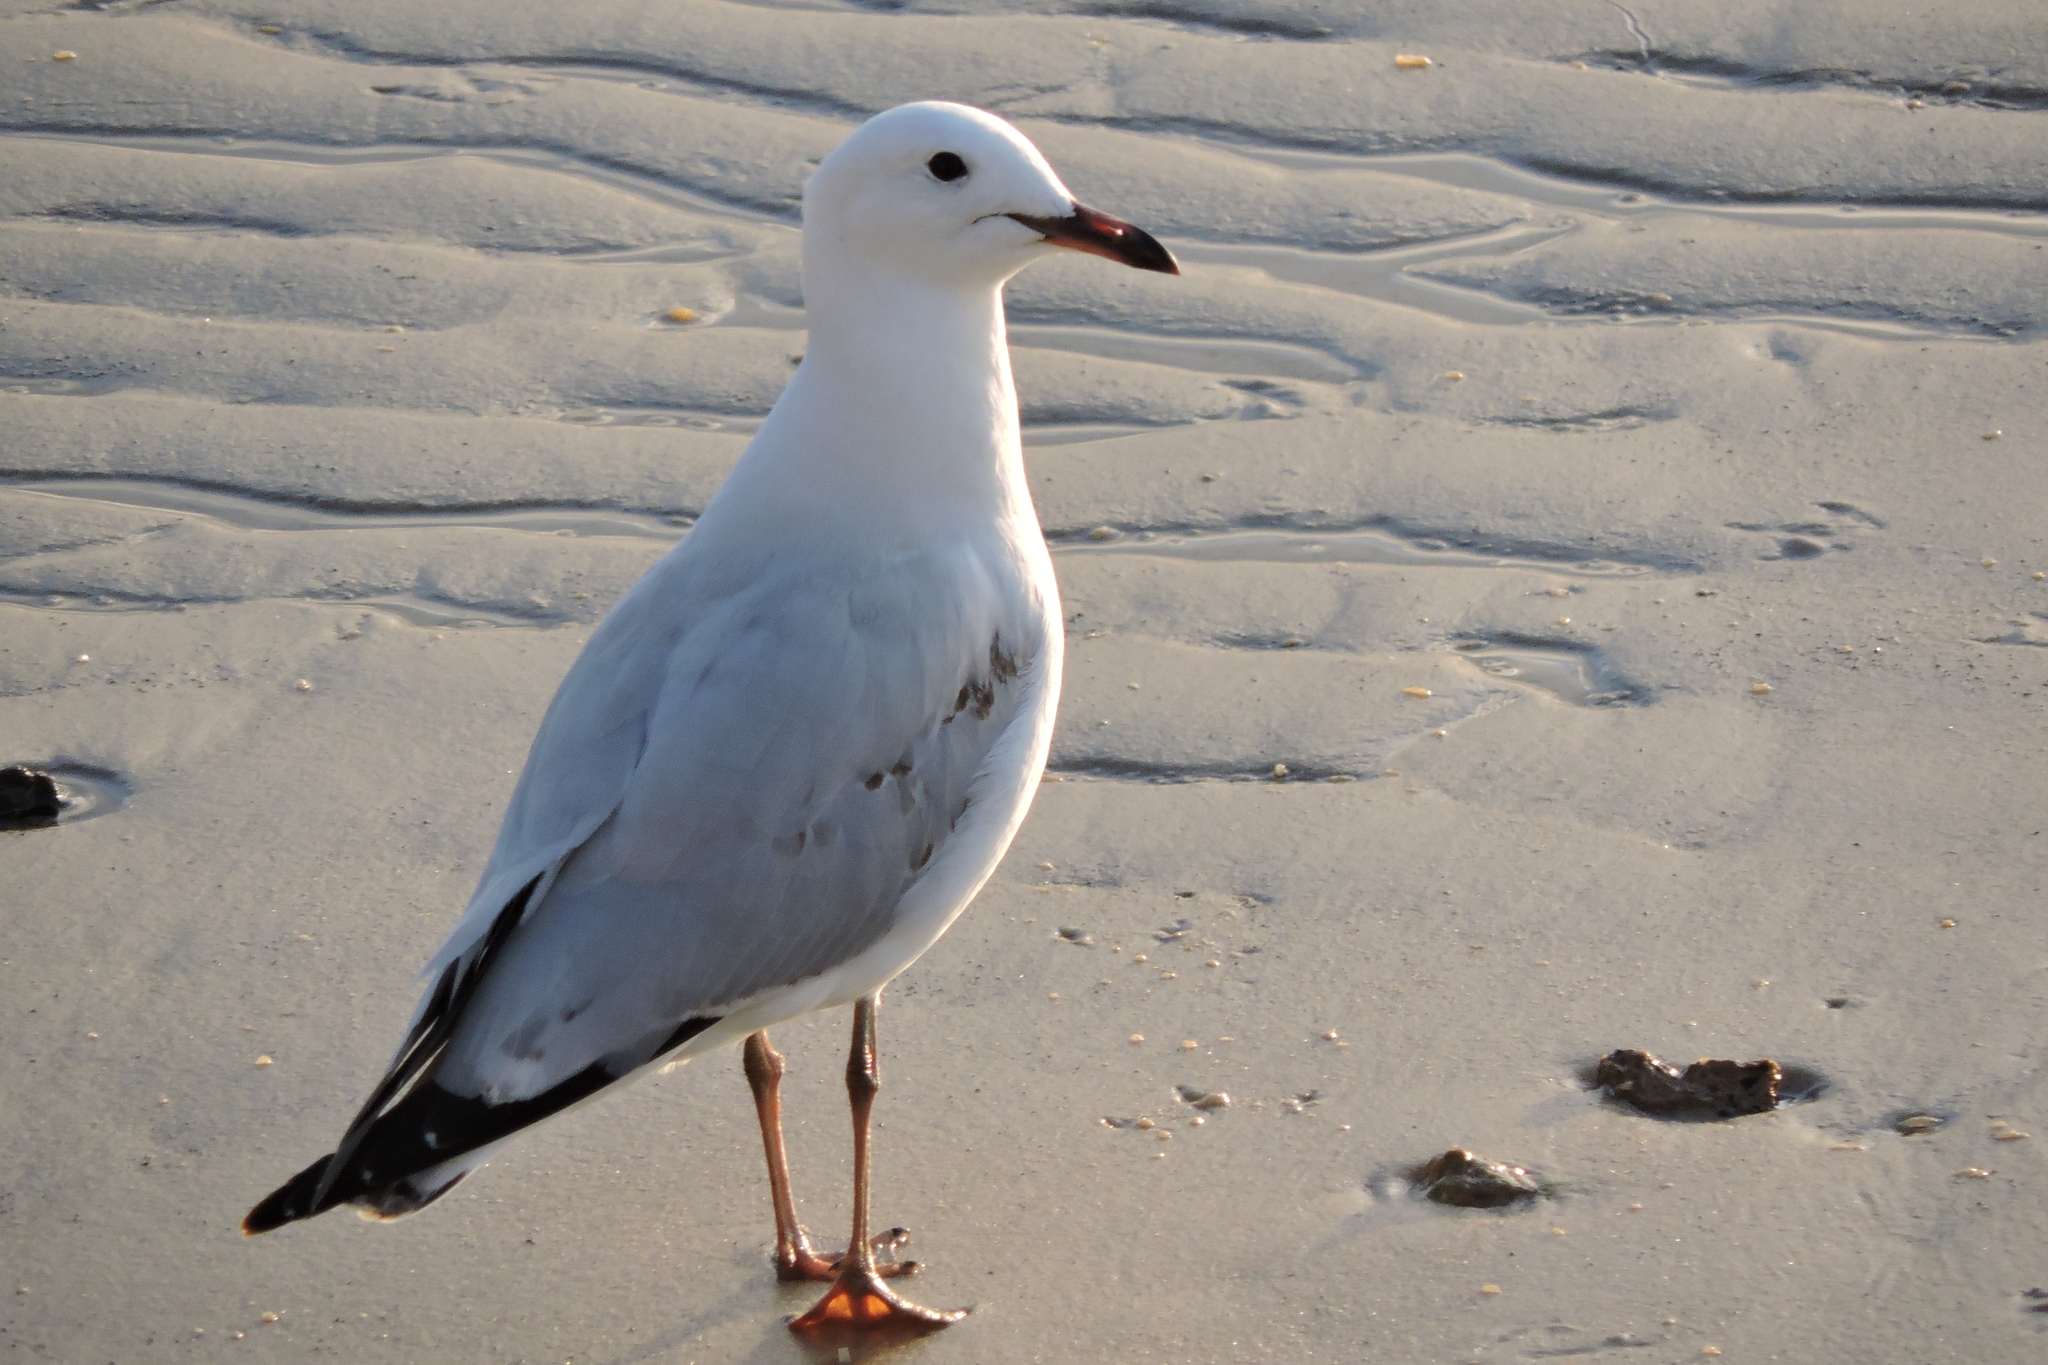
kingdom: Animalia
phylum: Chordata
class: Aves
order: Charadriiformes
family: Laridae
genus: Chroicocephalus
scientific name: Chroicocephalus novaehollandiae
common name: Silver gull
